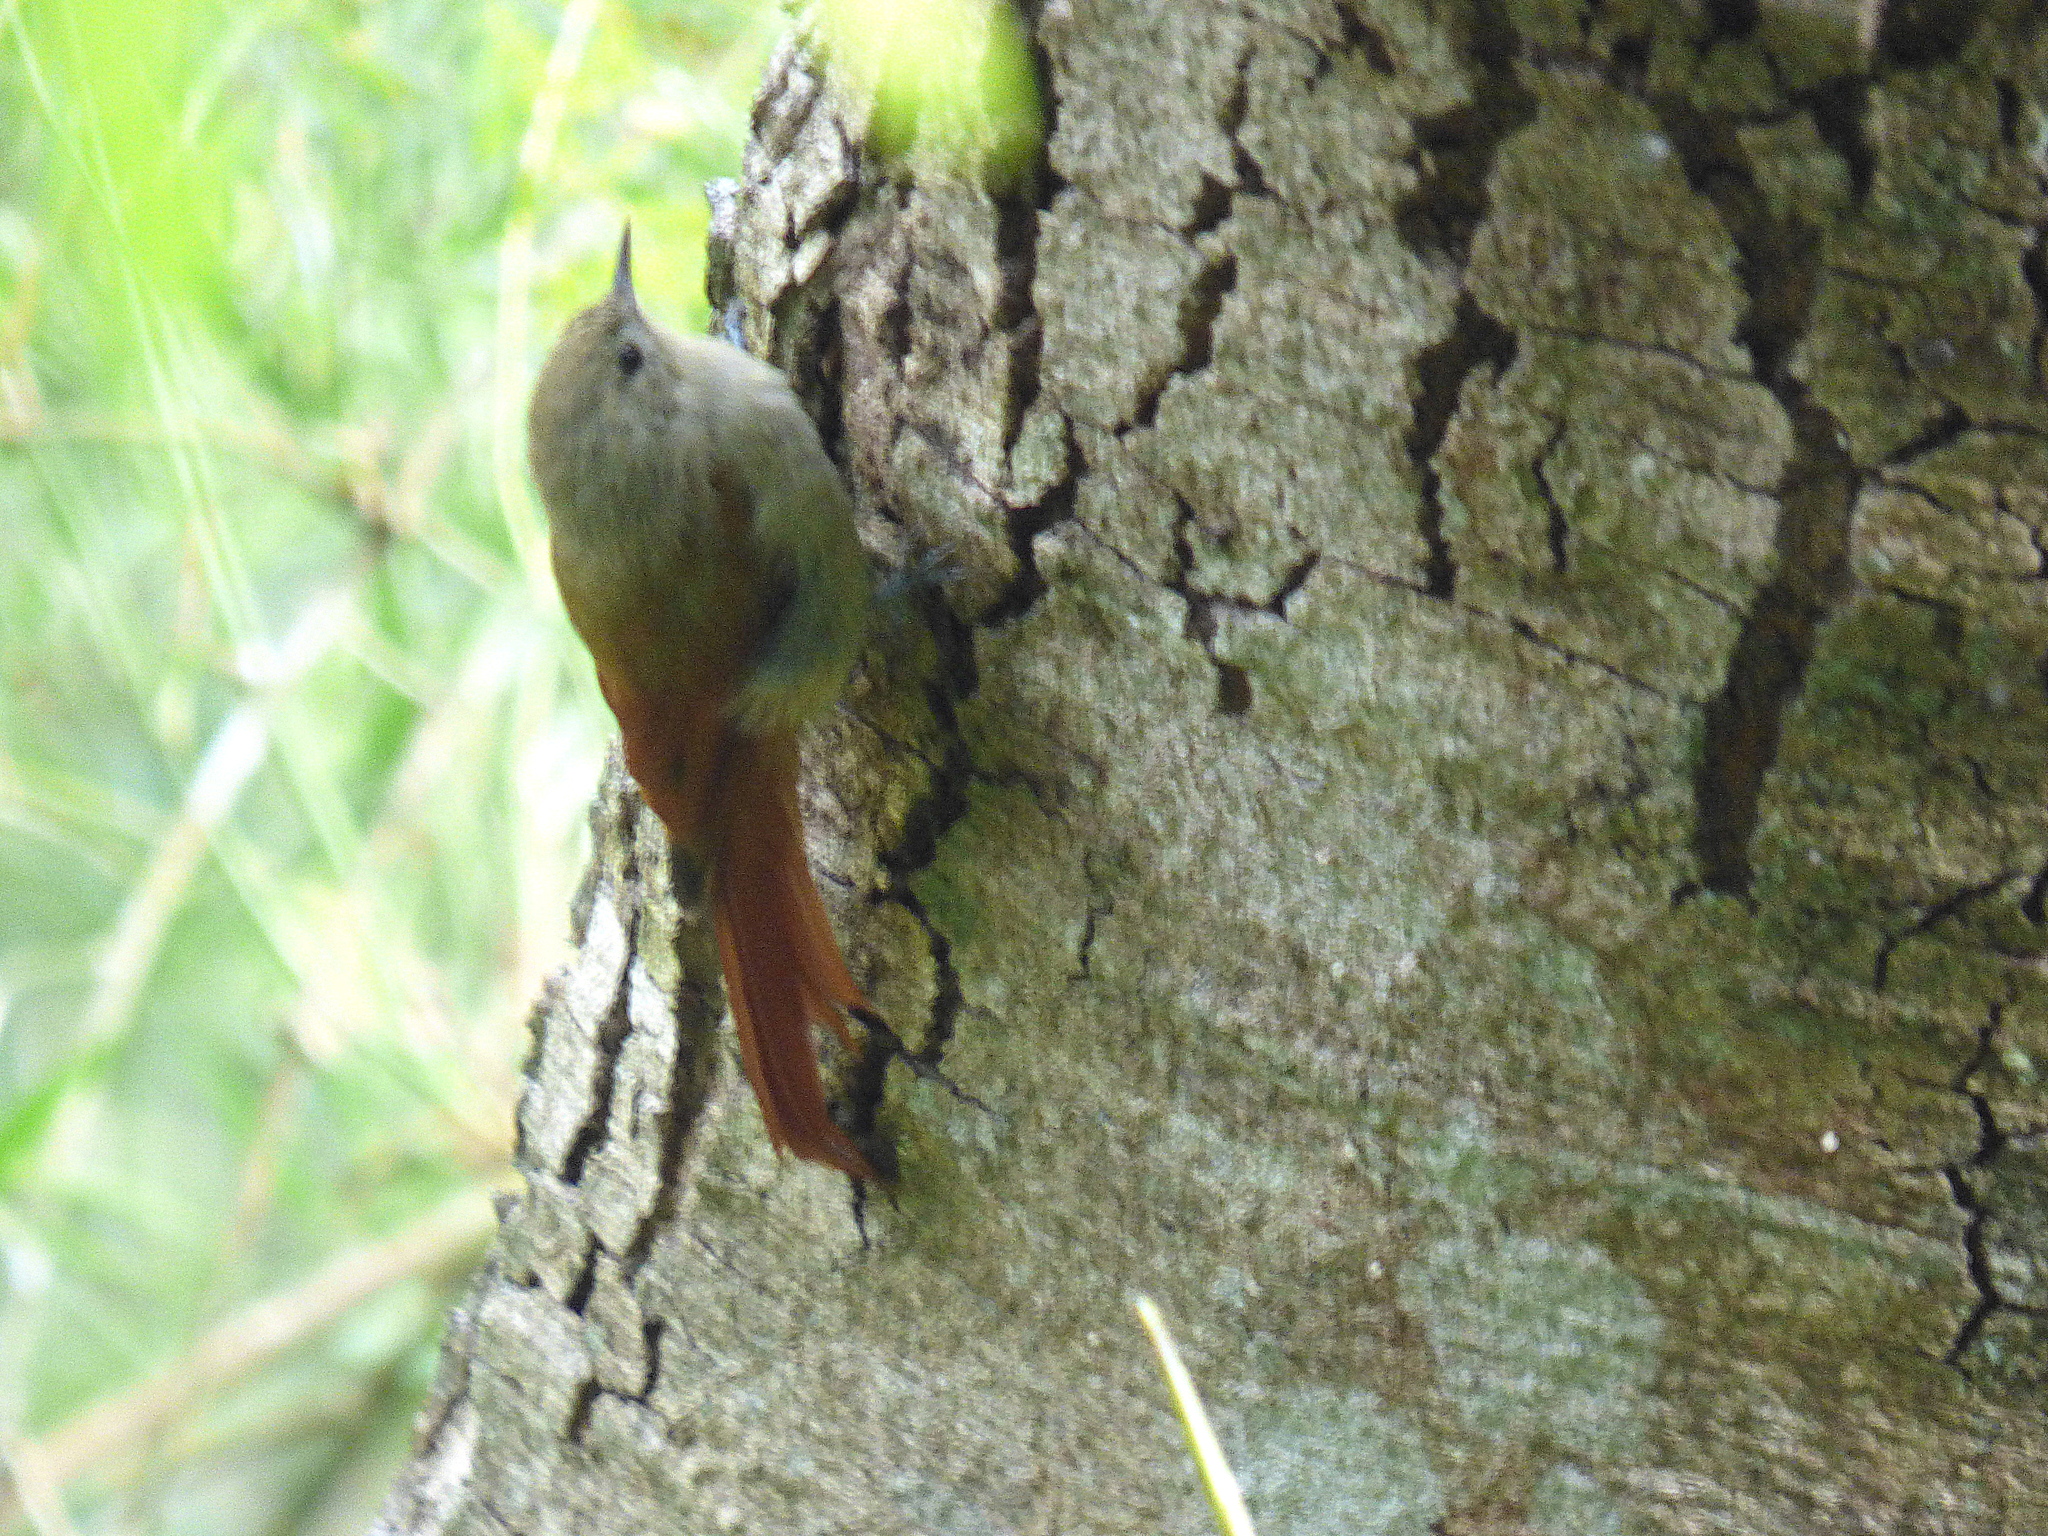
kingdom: Animalia
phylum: Chordata
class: Aves
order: Passeriformes
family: Furnariidae
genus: Sittasomus
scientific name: Sittasomus griseicapillus
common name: Olivaceous woodcreeper
